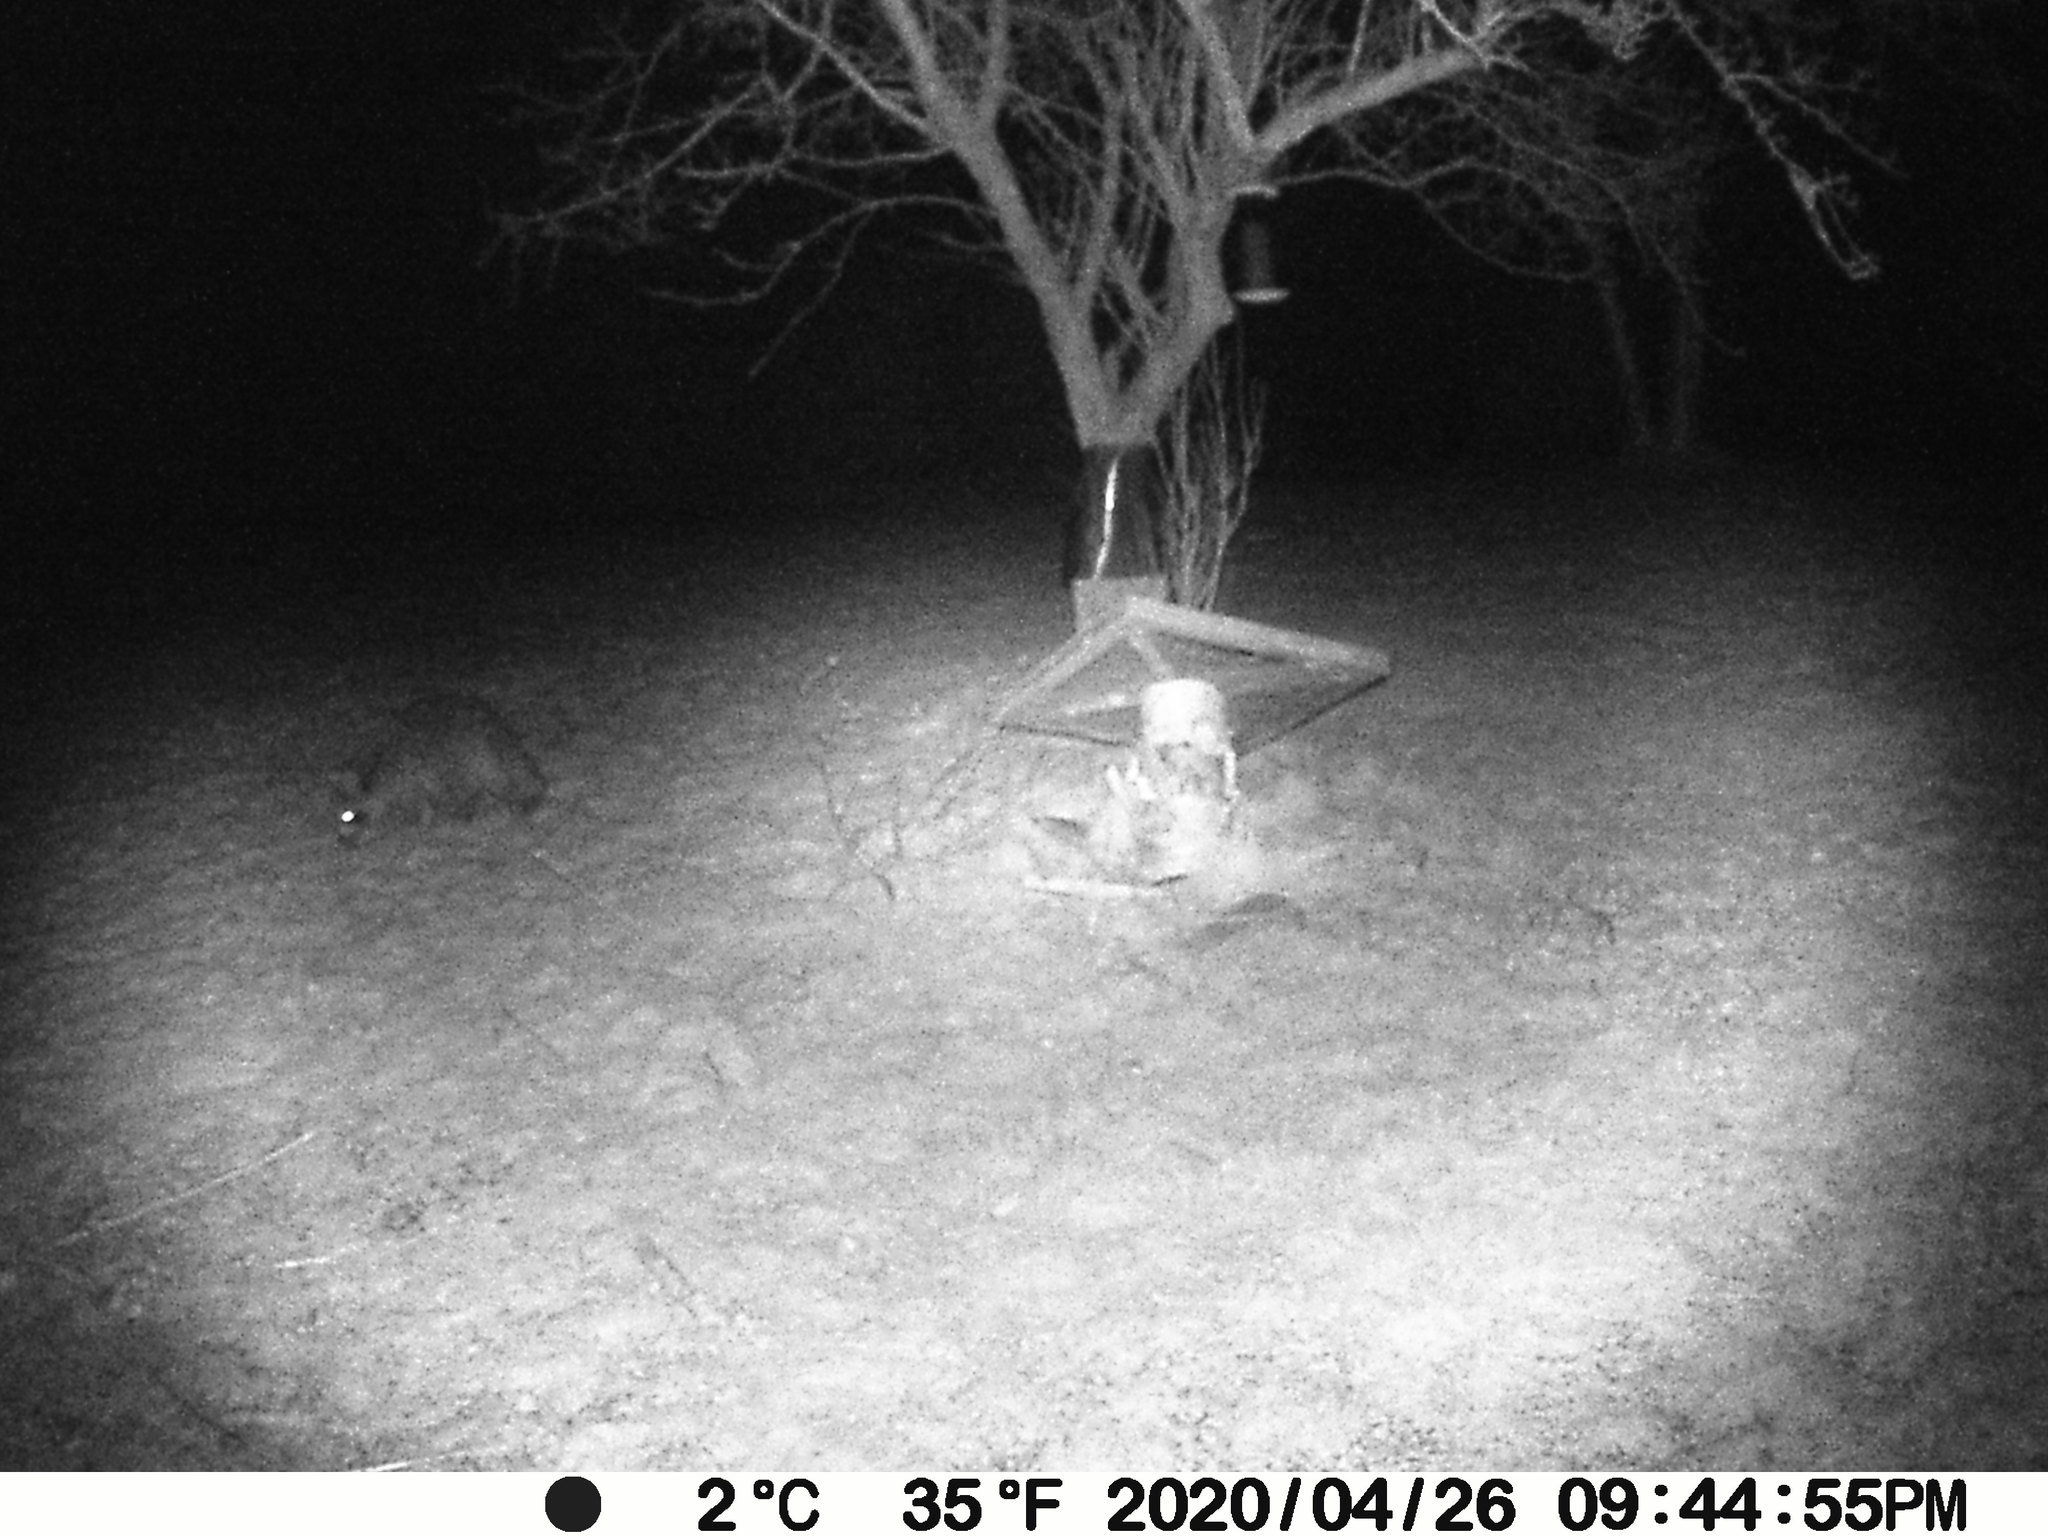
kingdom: Animalia
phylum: Chordata
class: Mammalia
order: Carnivora
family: Procyonidae
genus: Procyon
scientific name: Procyon lotor
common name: Raccoon
